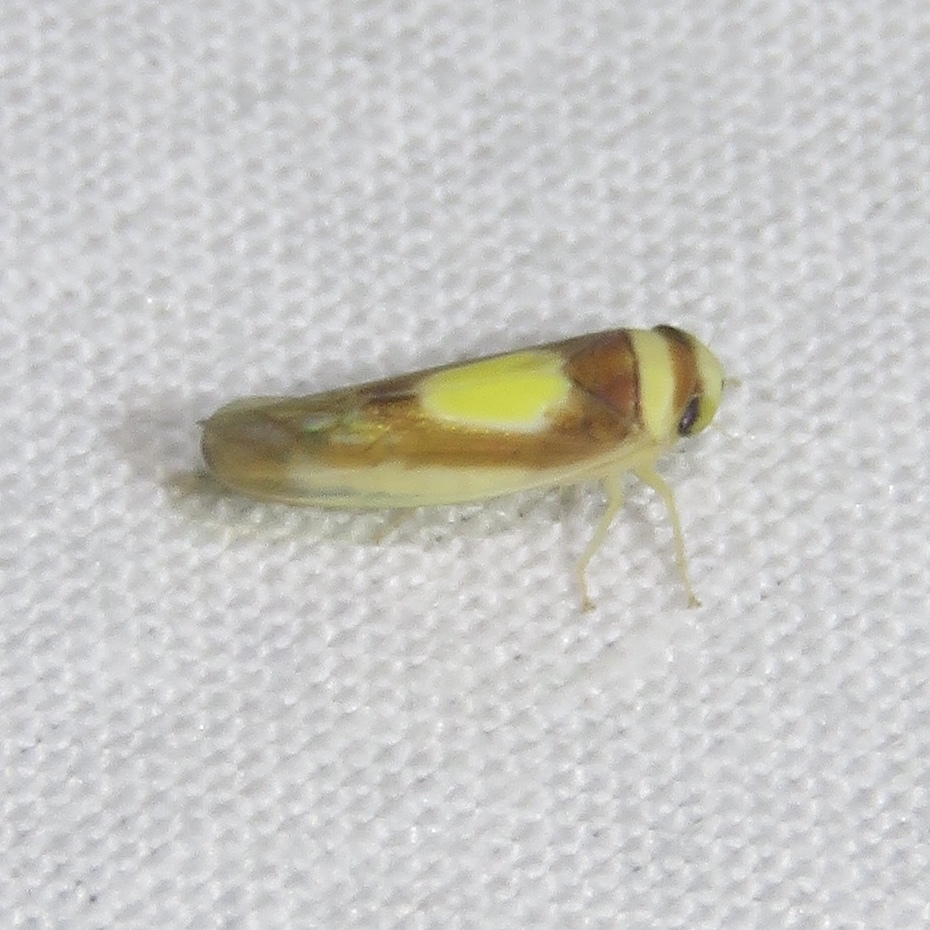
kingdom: Animalia
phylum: Arthropoda
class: Insecta
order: Hemiptera
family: Cicadellidae
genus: Colladonus
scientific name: Colladonus clitellarius
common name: The saddleback leafhopper
